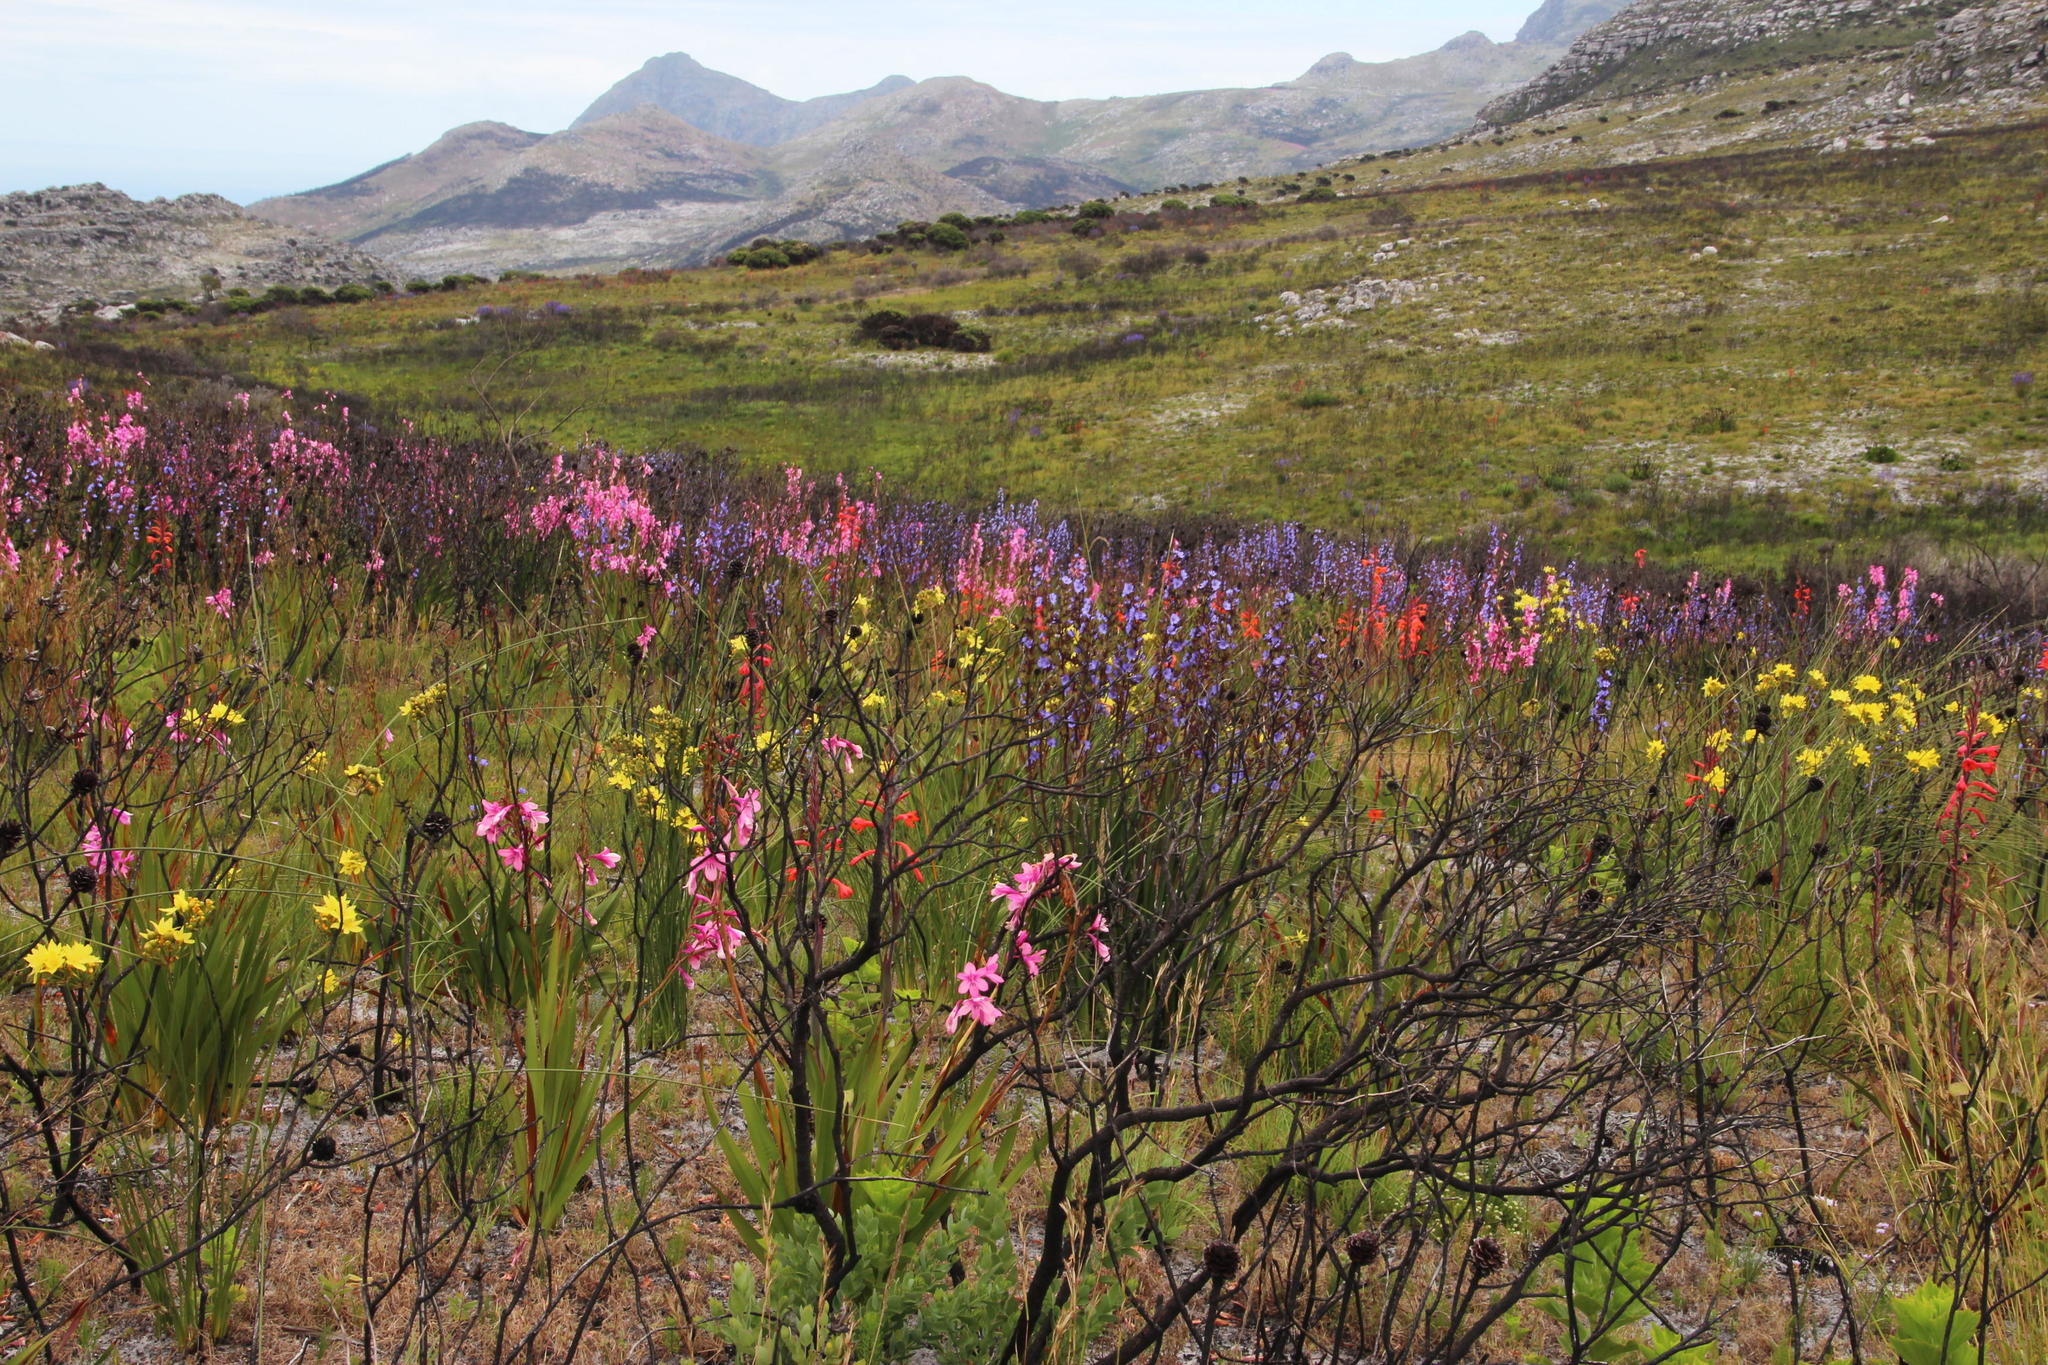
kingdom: Plantae
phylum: Tracheophyta
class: Liliopsida
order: Asparagales
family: Iridaceae
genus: Aristea
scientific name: Aristea bakeri
